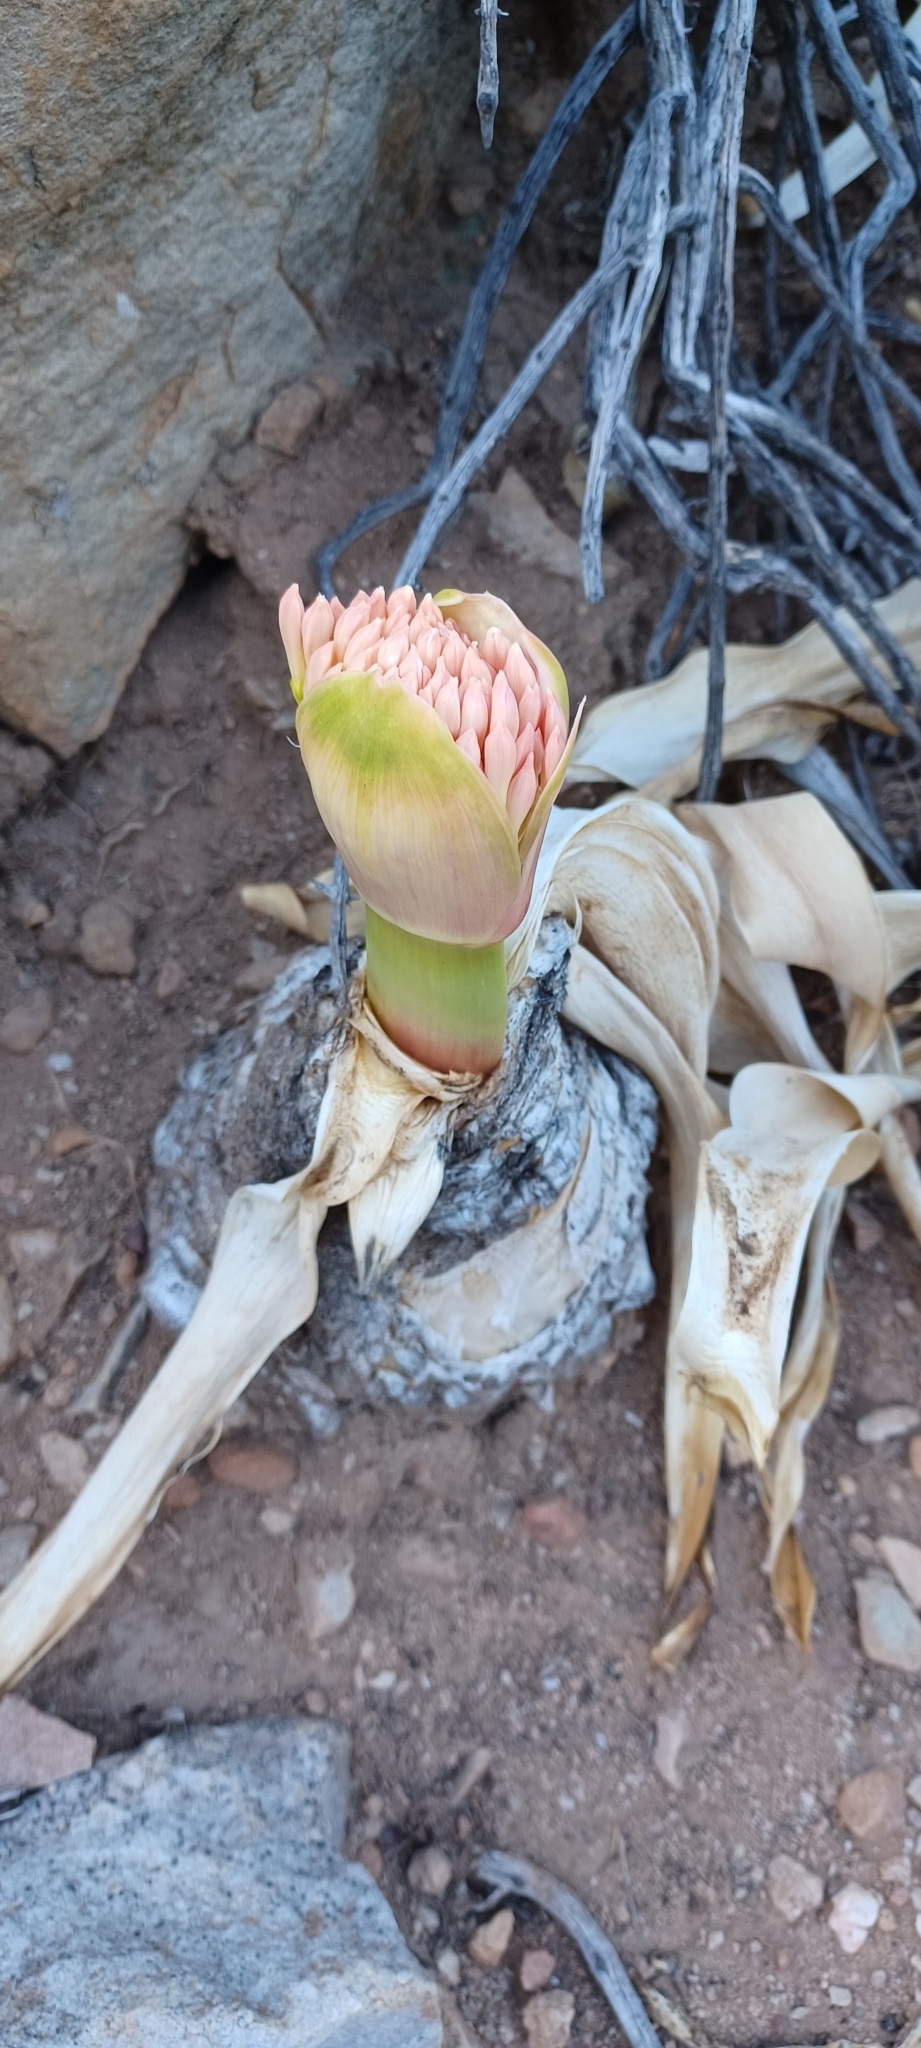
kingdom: Plantae
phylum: Tracheophyta
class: Liliopsida
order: Asparagales
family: Amaryllidaceae
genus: Boophone
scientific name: Boophone disticha
